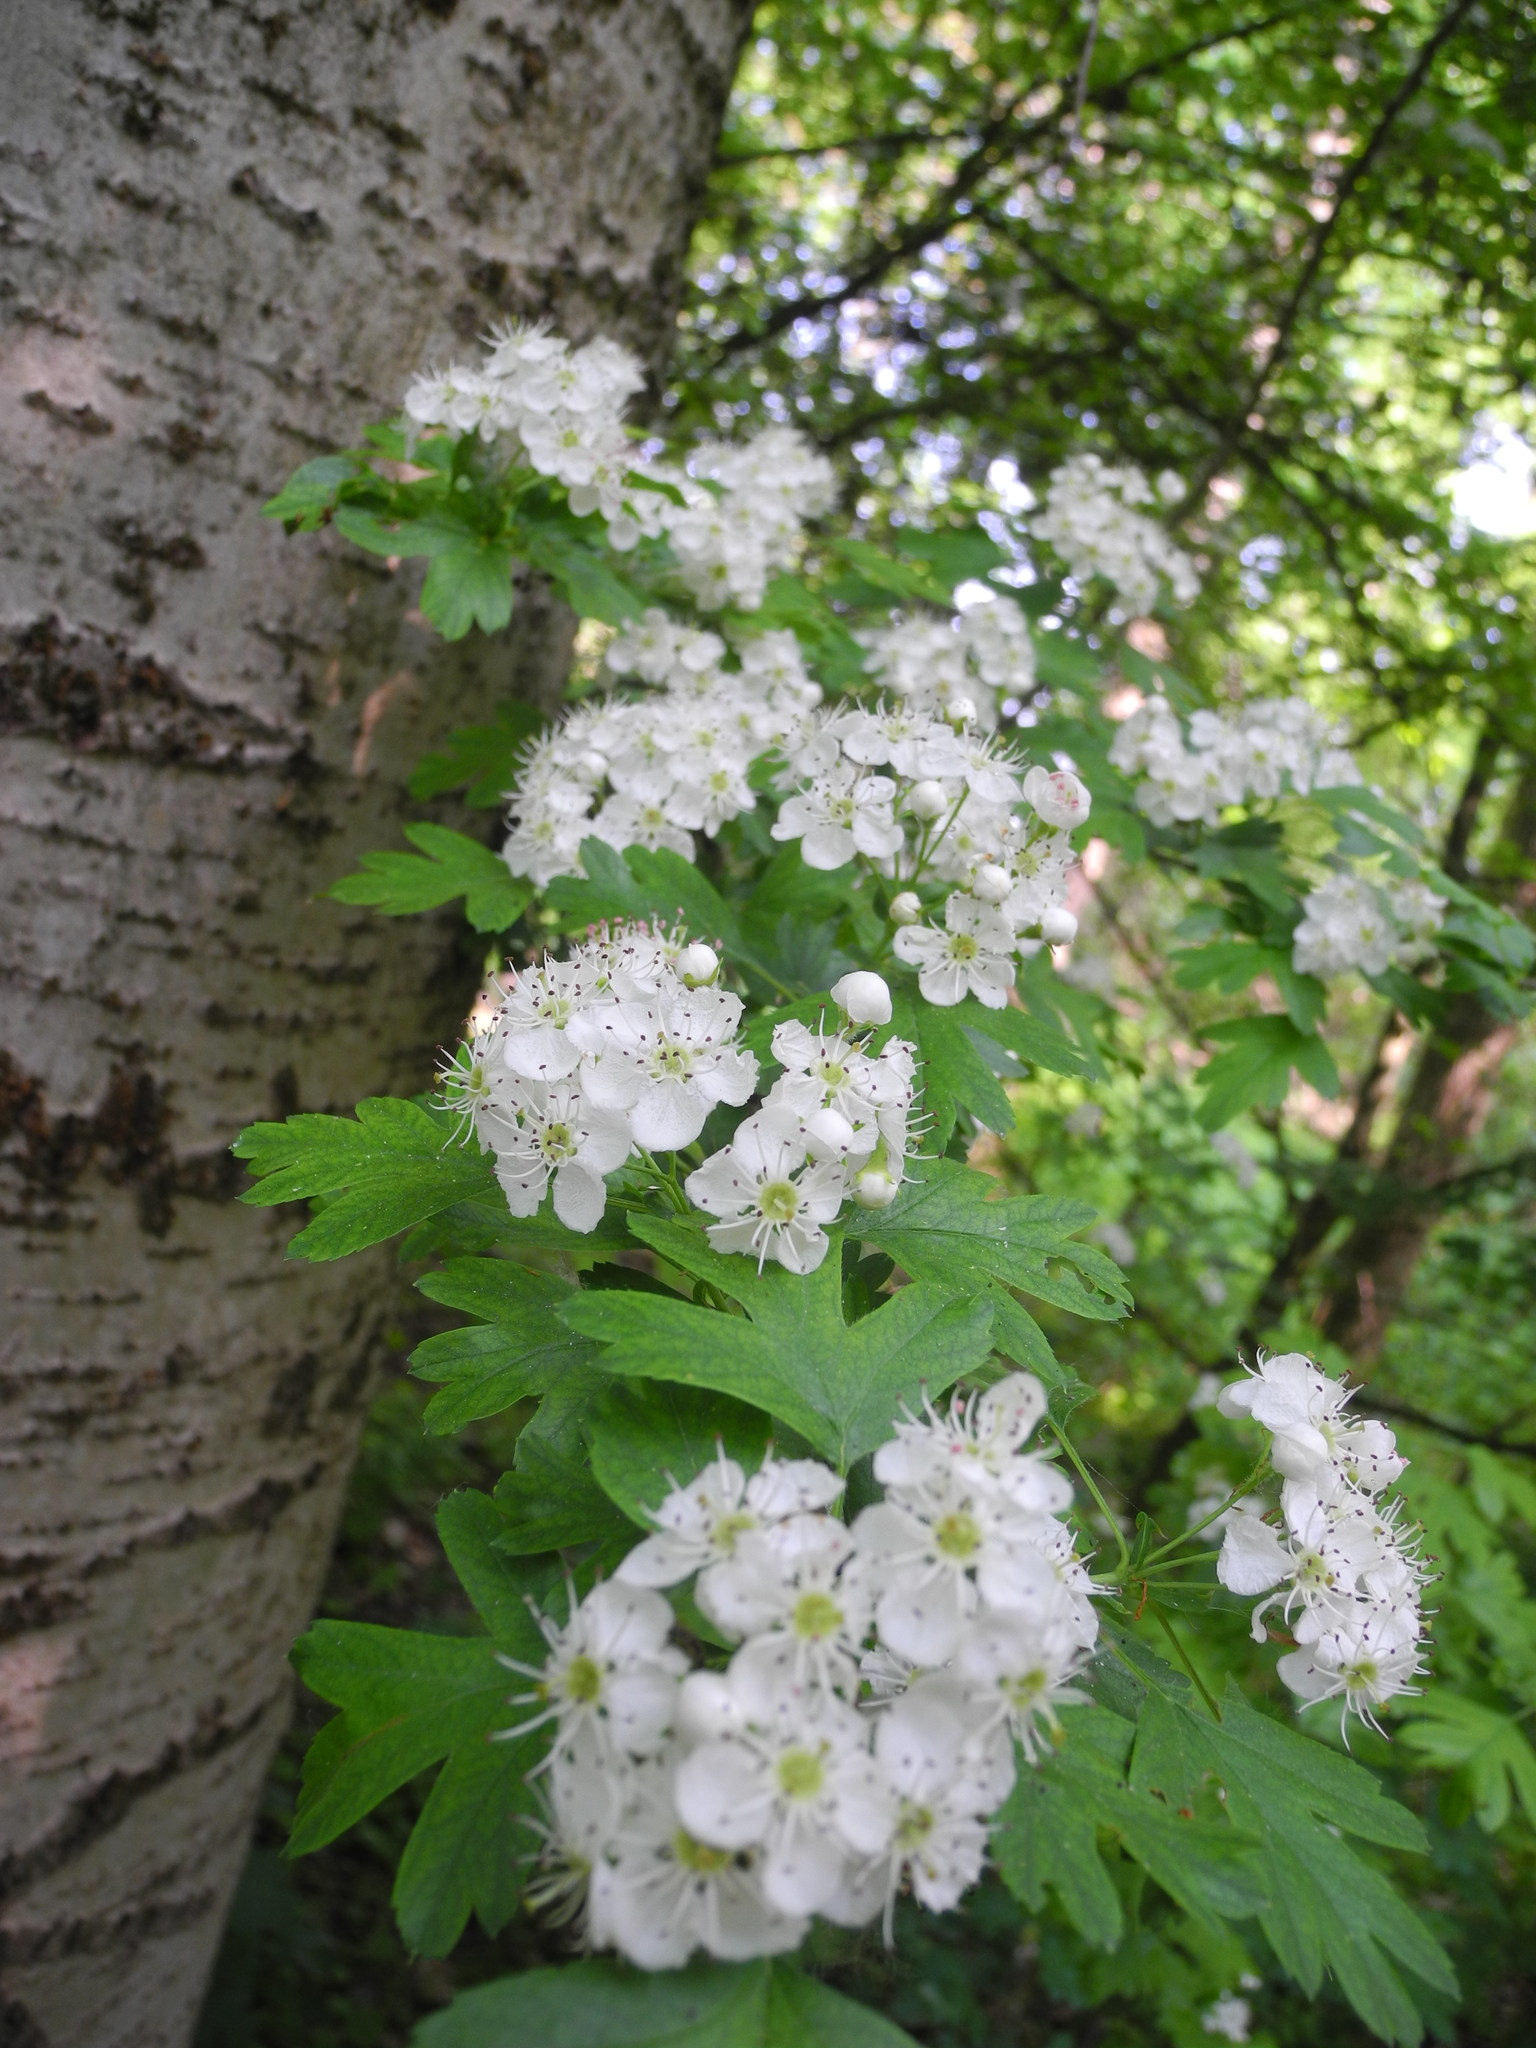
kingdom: Plantae
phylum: Tracheophyta
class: Magnoliopsida
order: Rosales
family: Rosaceae
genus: Crataegus
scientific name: Crataegus monogyna
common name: Hawthorn
